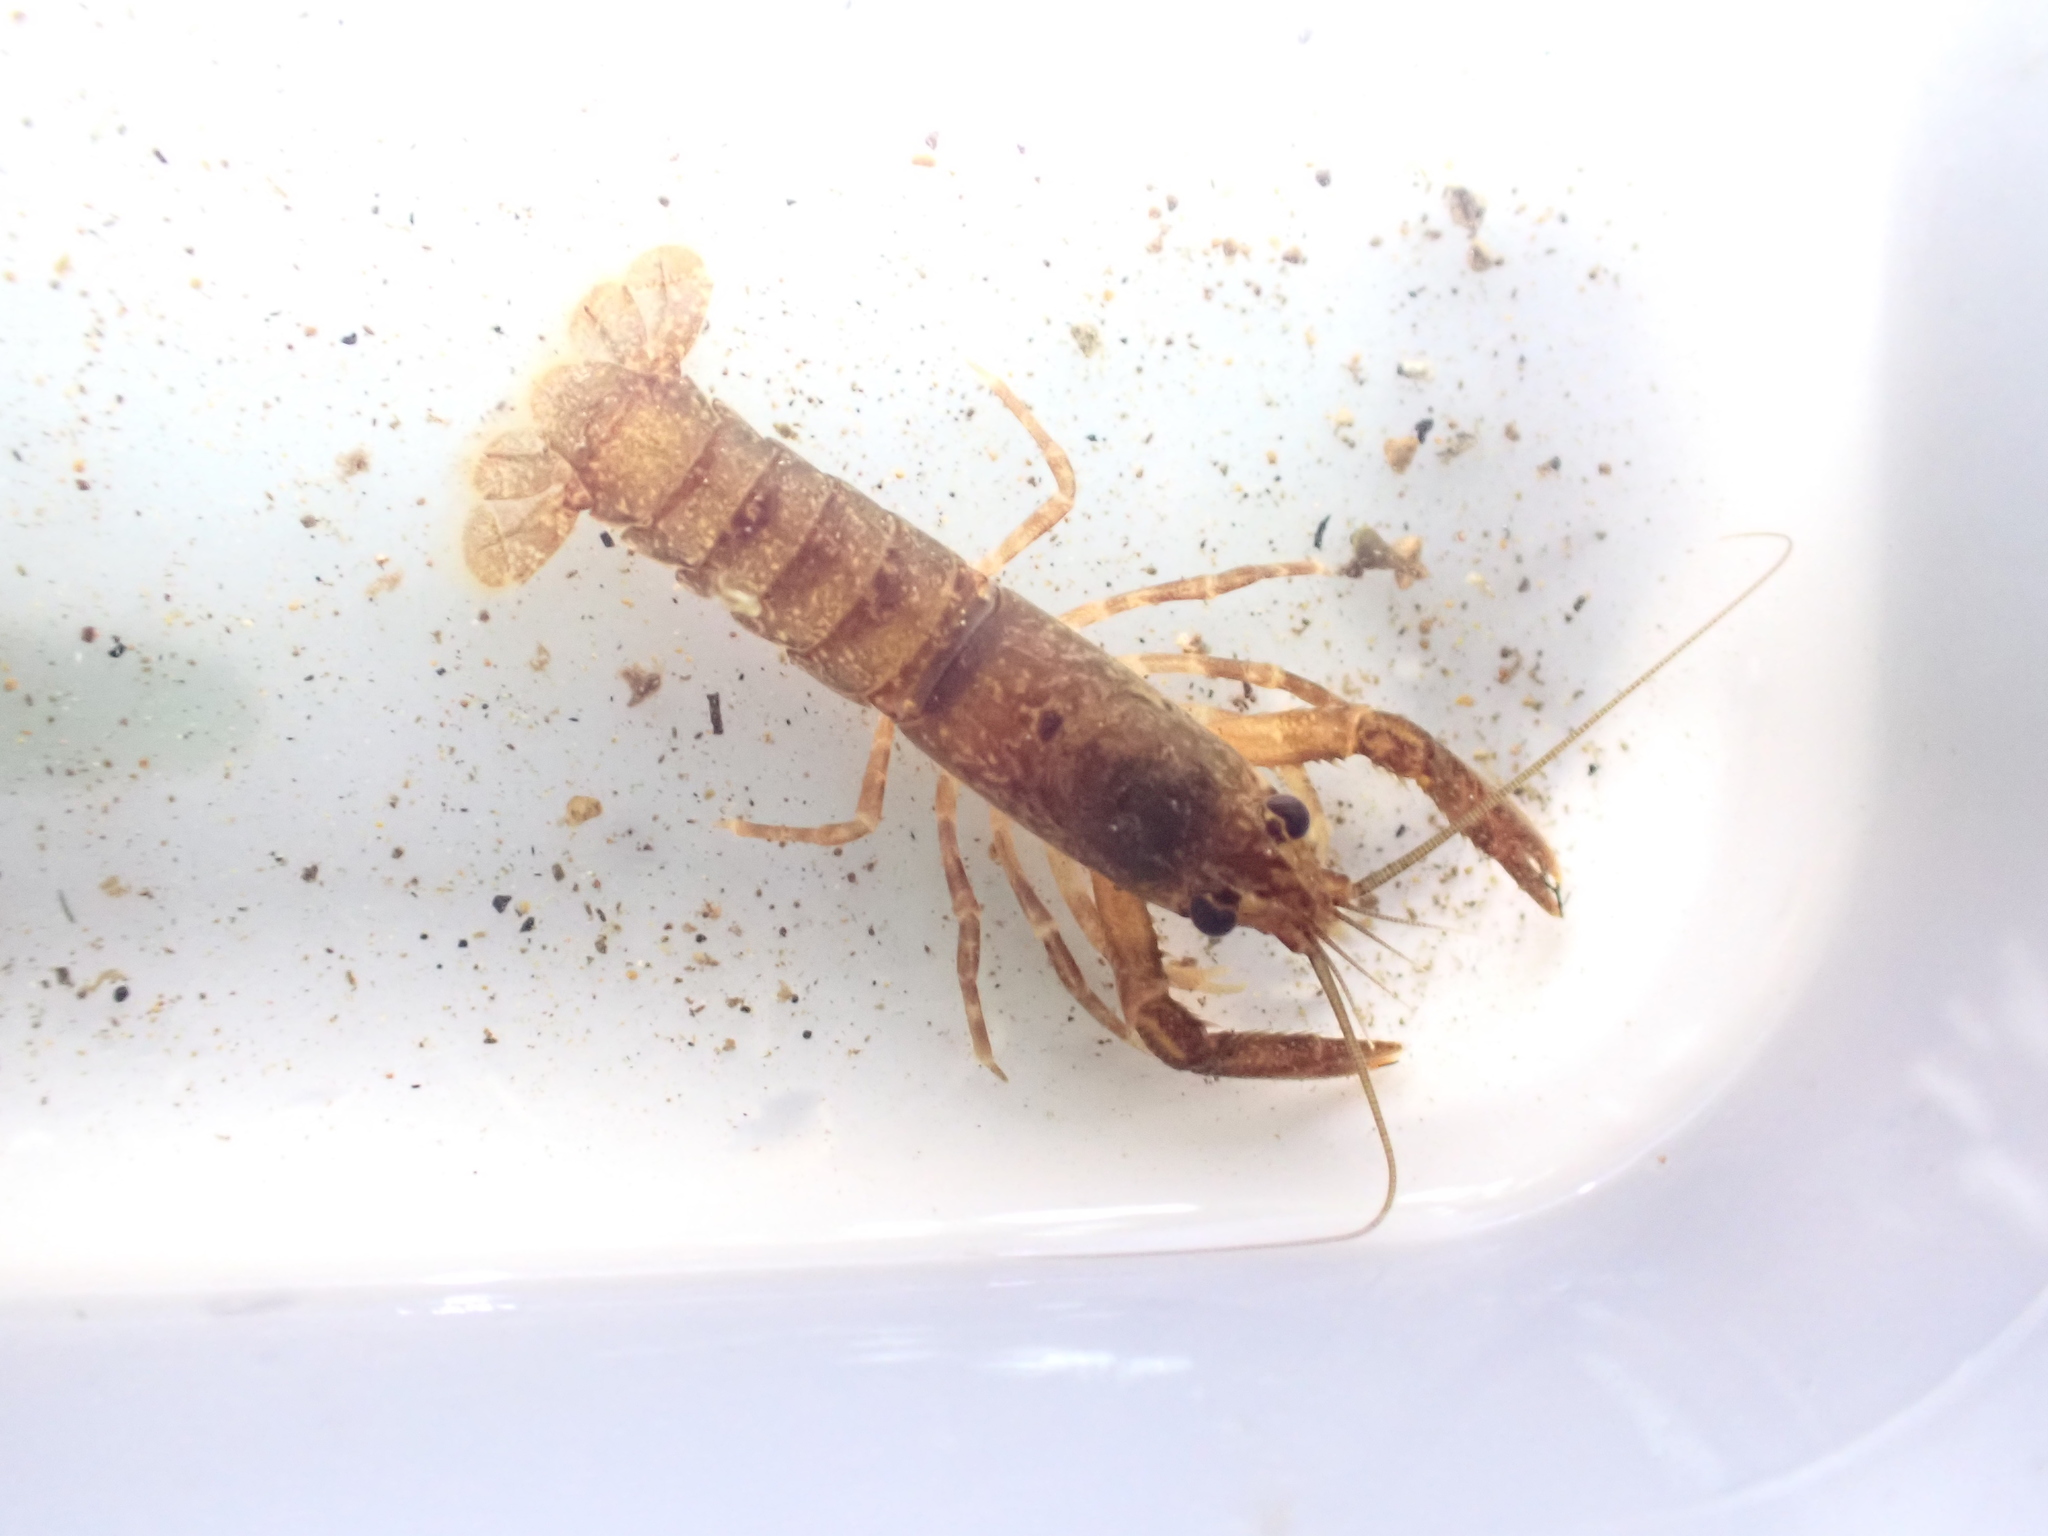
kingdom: Animalia
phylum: Arthropoda
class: Malacostraca
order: Decapoda
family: Parastacidae
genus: Paranephrops
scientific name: Paranephrops planifrons
